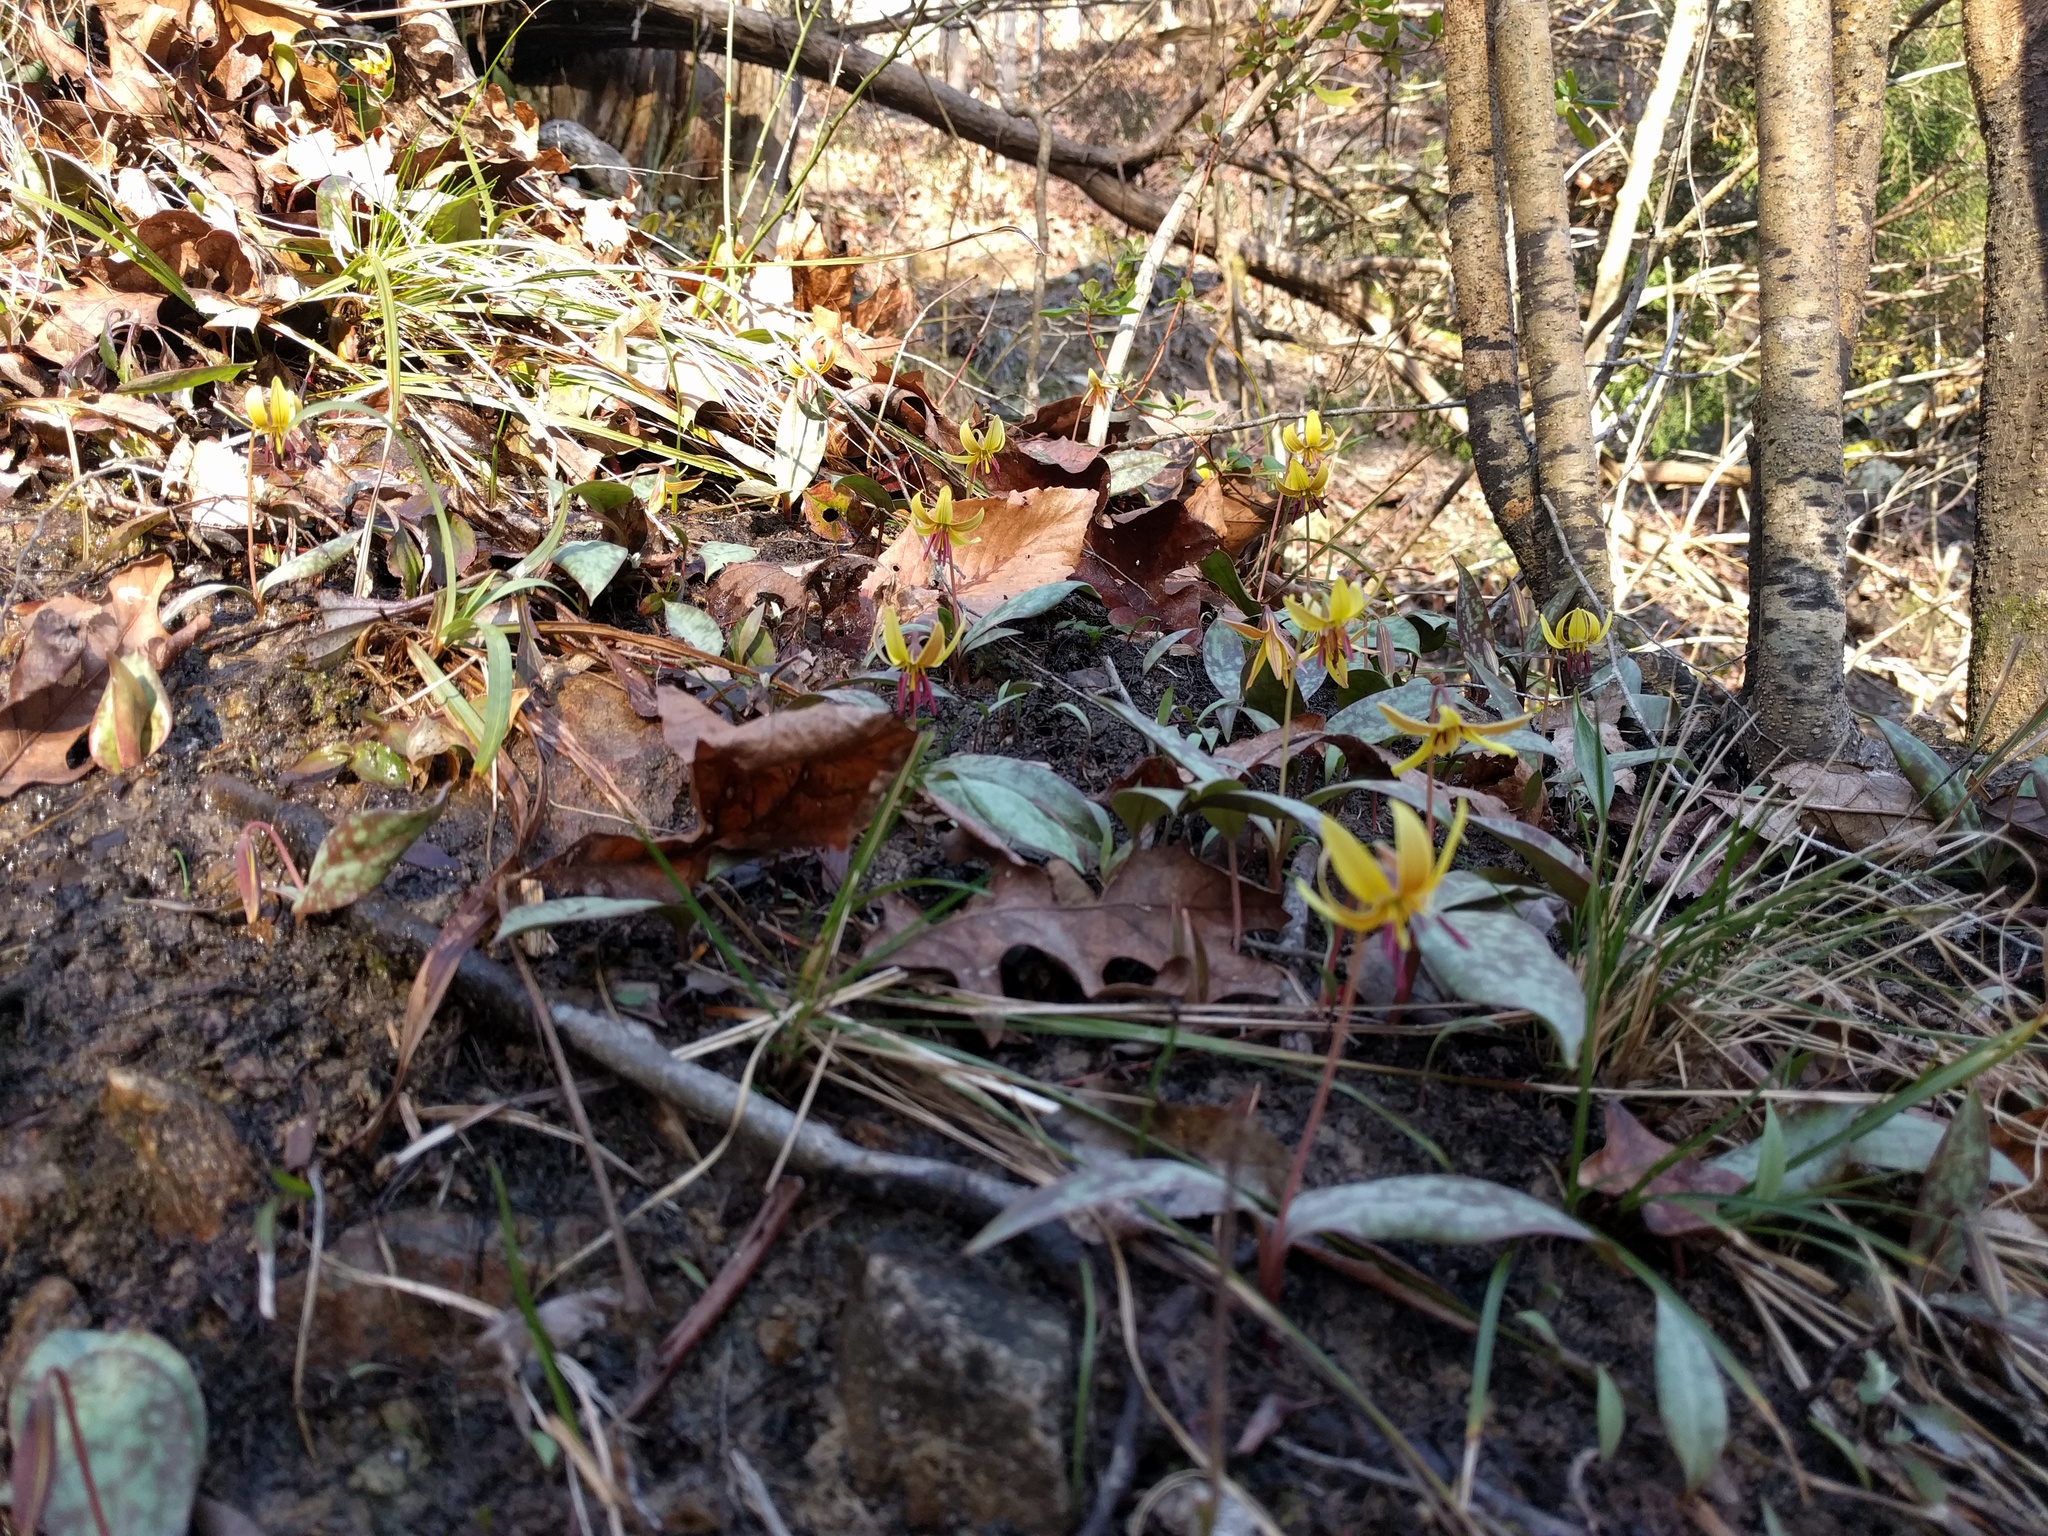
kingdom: Plantae
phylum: Tracheophyta
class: Liliopsida
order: Liliales
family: Liliaceae
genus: Erythronium
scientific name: Erythronium umbilicatum
